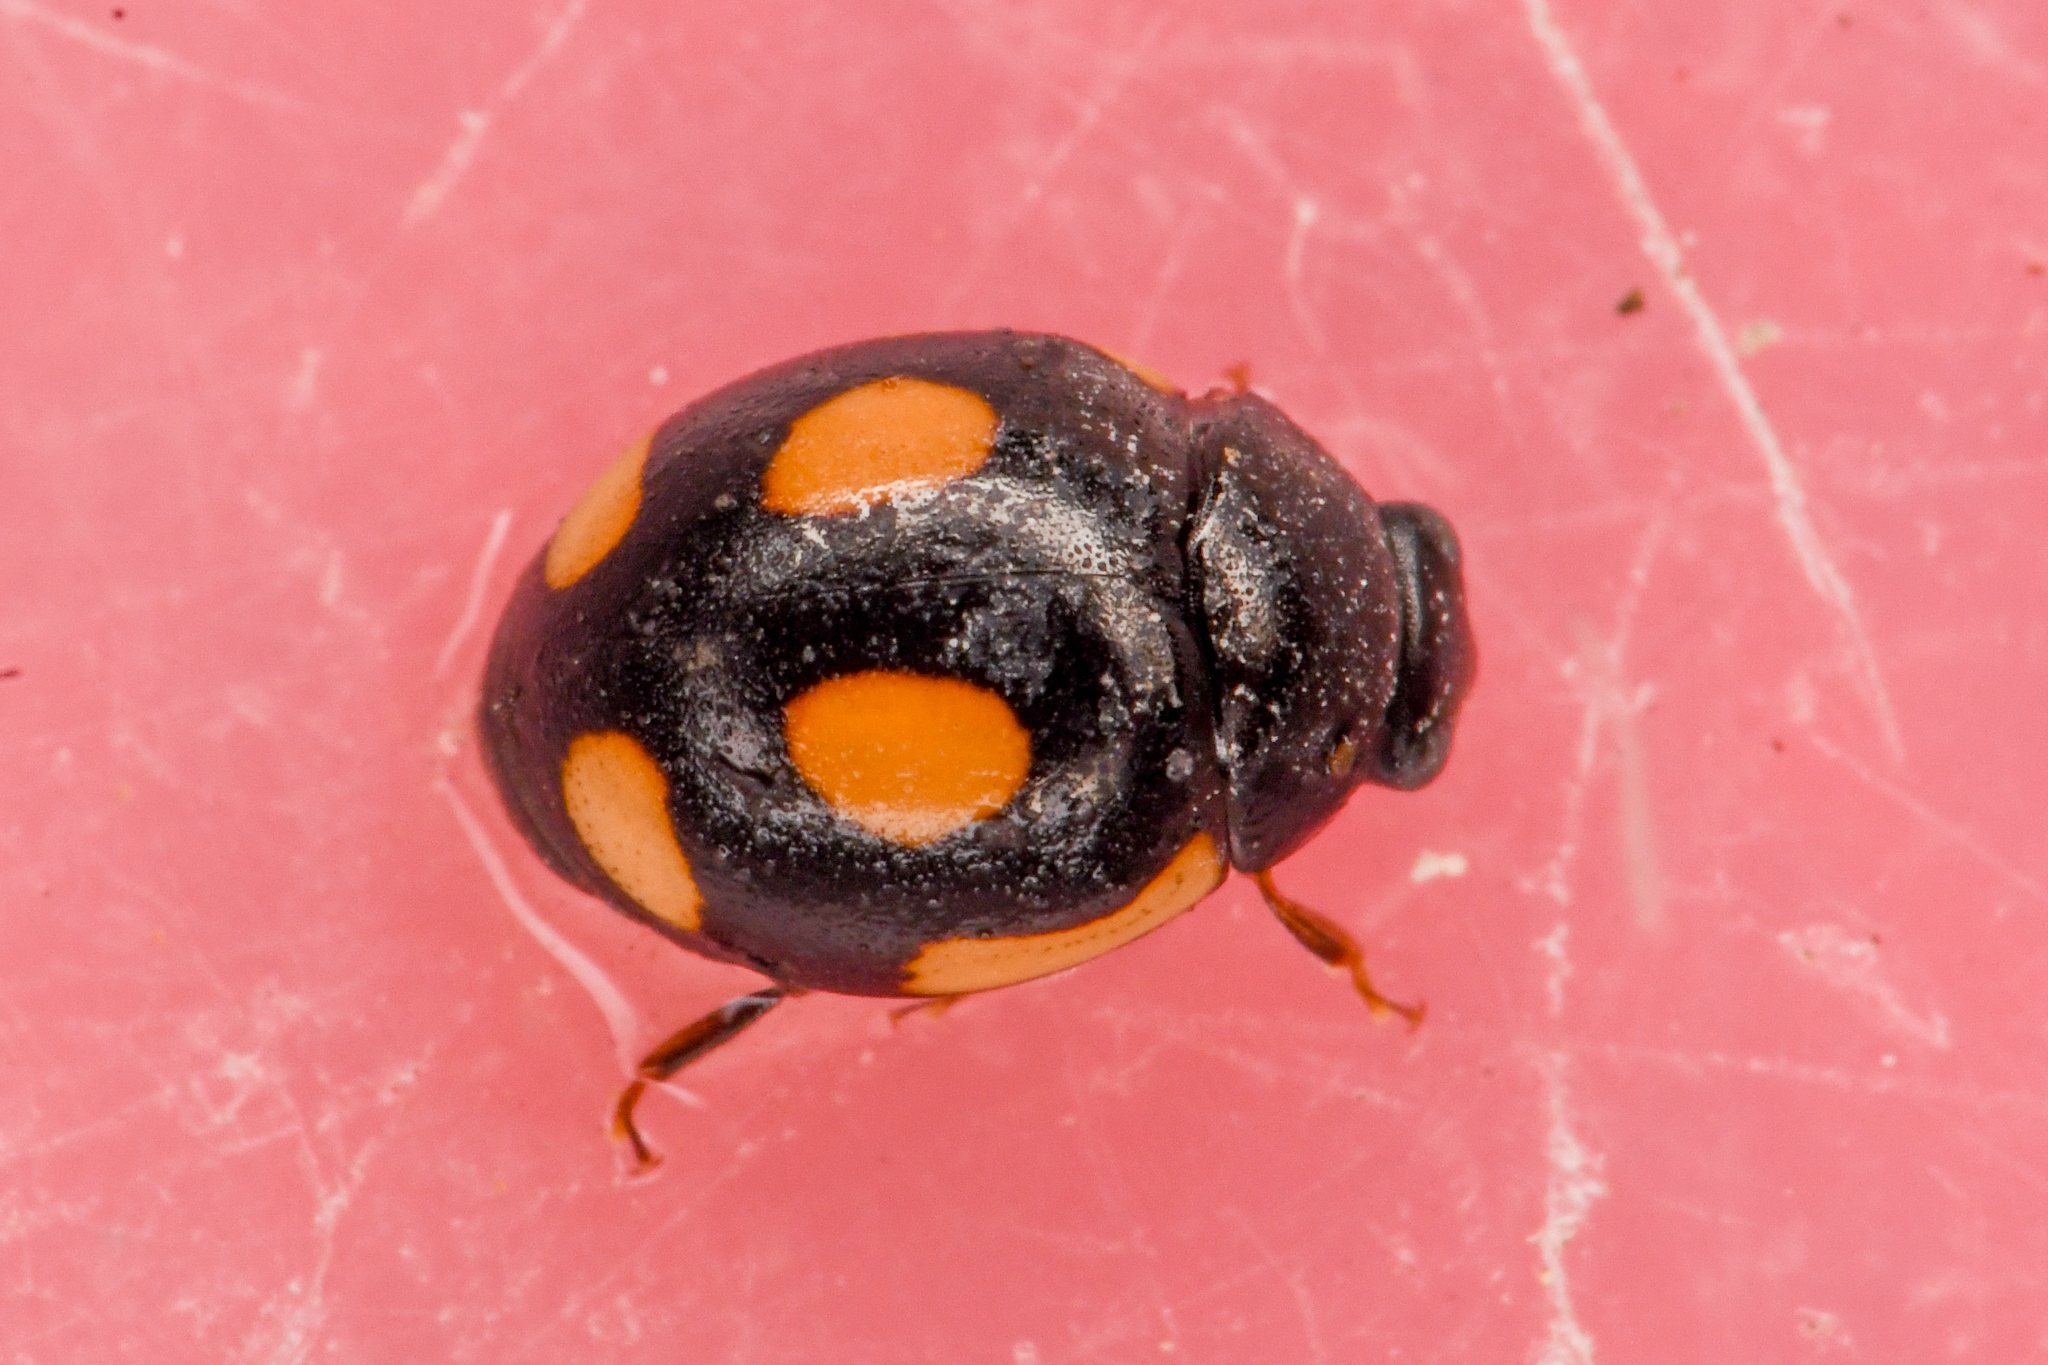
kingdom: Animalia
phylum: Arthropoda
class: Insecta
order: Coleoptera
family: Coccinellidae
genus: Hyperaspis
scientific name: Hyperaspis lateralis
